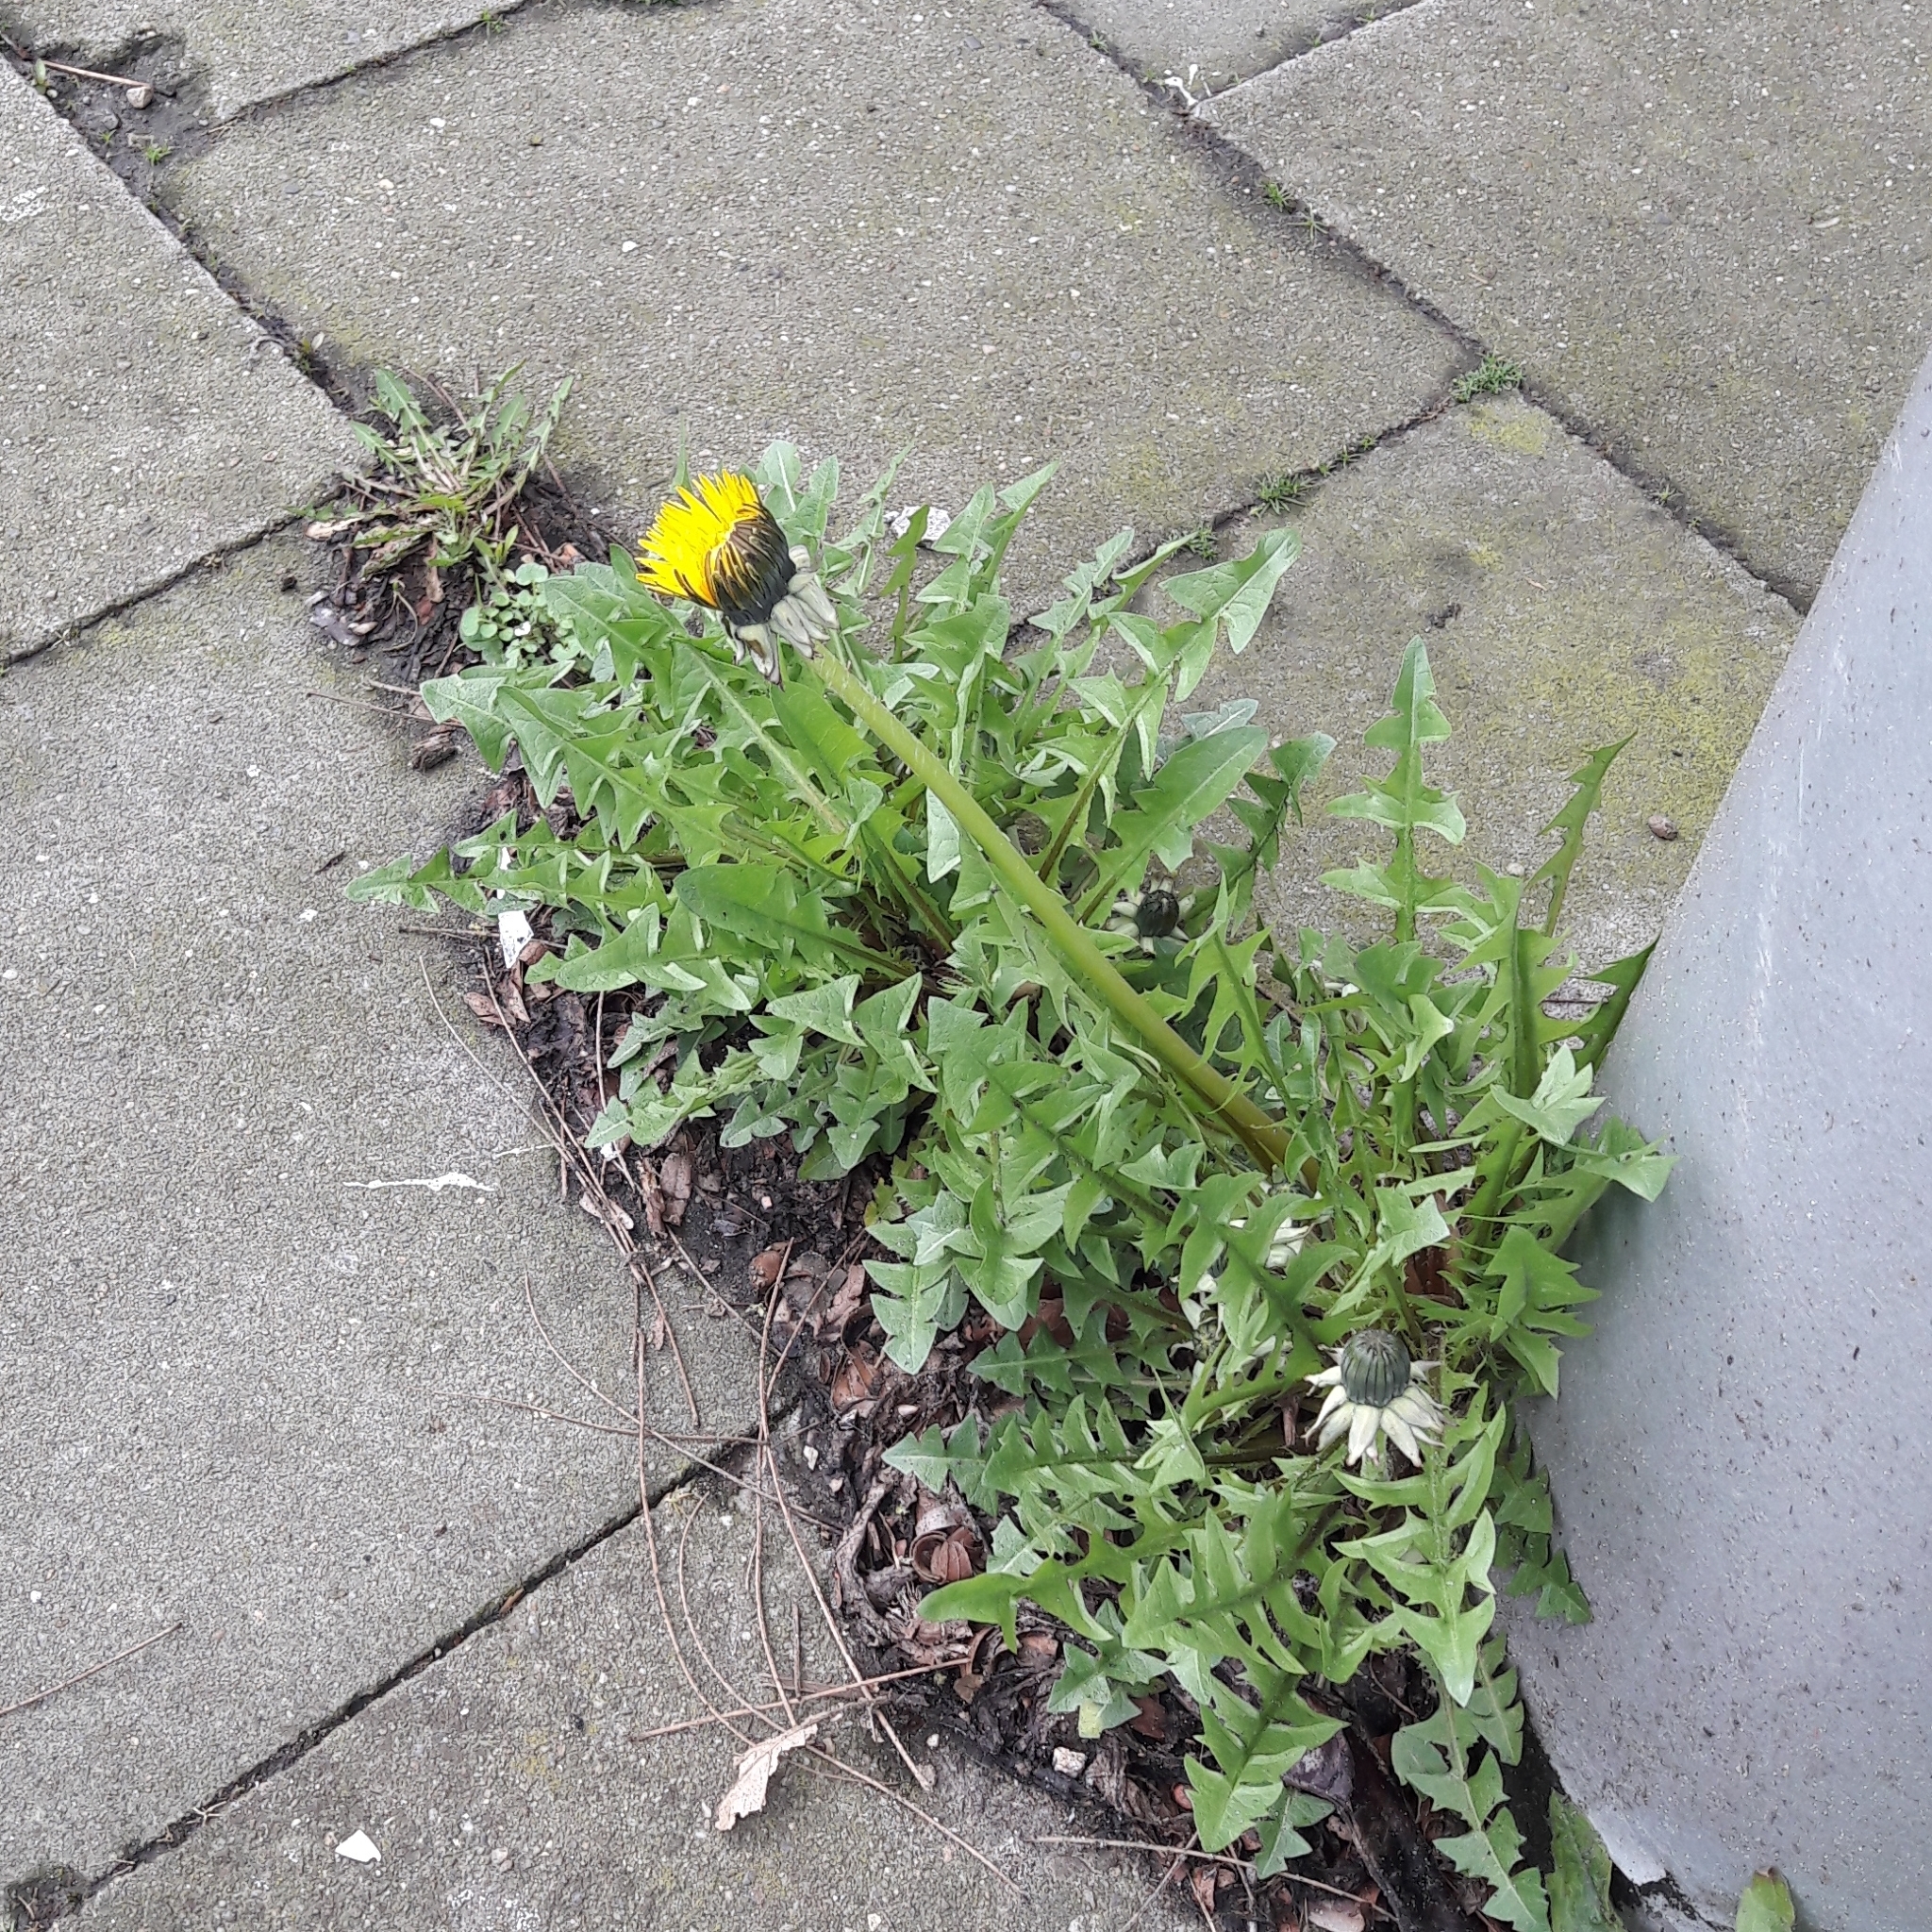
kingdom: Plantae
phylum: Tracheophyta
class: Magnoliopsida
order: Asterales
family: Asteraceae
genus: Taraxacum
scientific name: Taraxacum officinale
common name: Common dandelion
